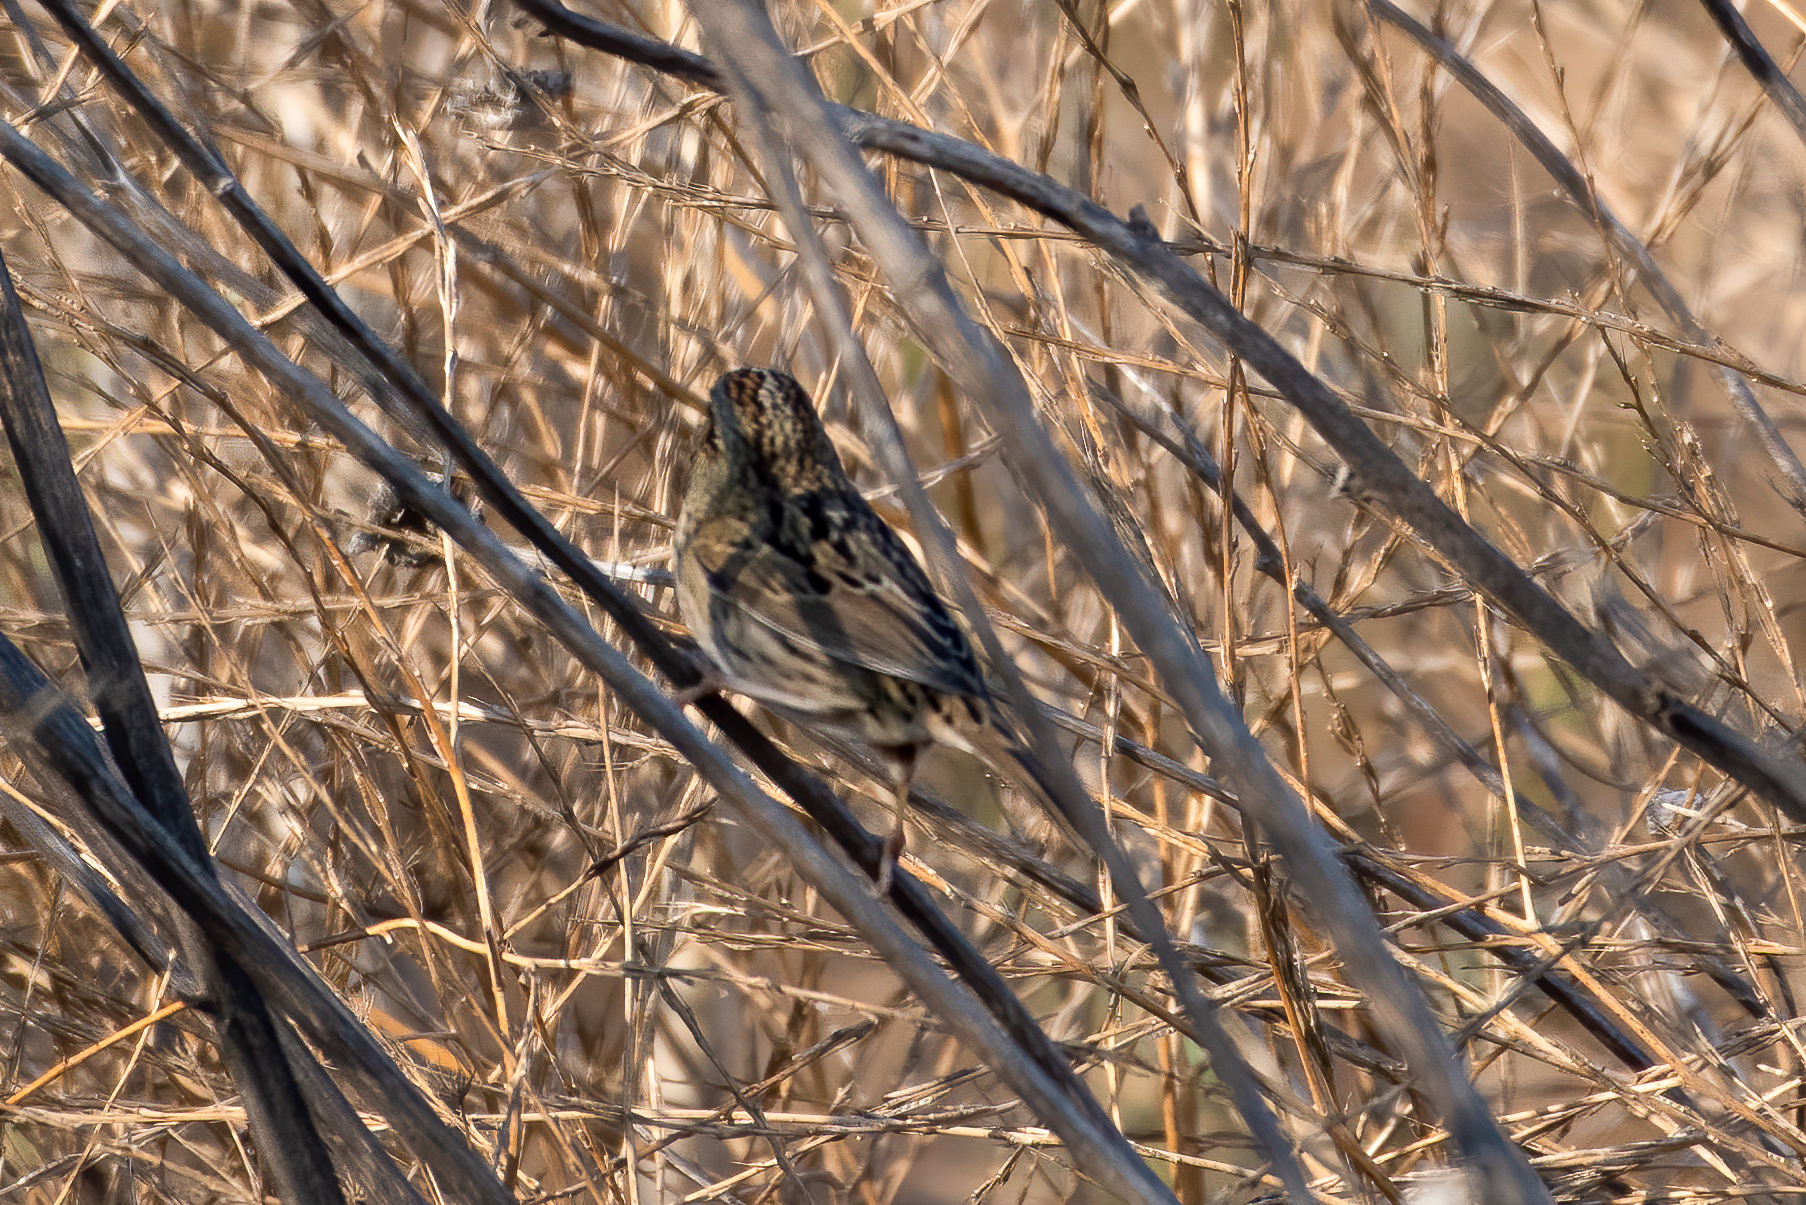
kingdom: Animalia
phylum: Chordata
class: Aves
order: Passeriformes
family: Passerellidae
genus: Melospiza
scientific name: Melospiza lincolnii
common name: Lincoln's sparrow
